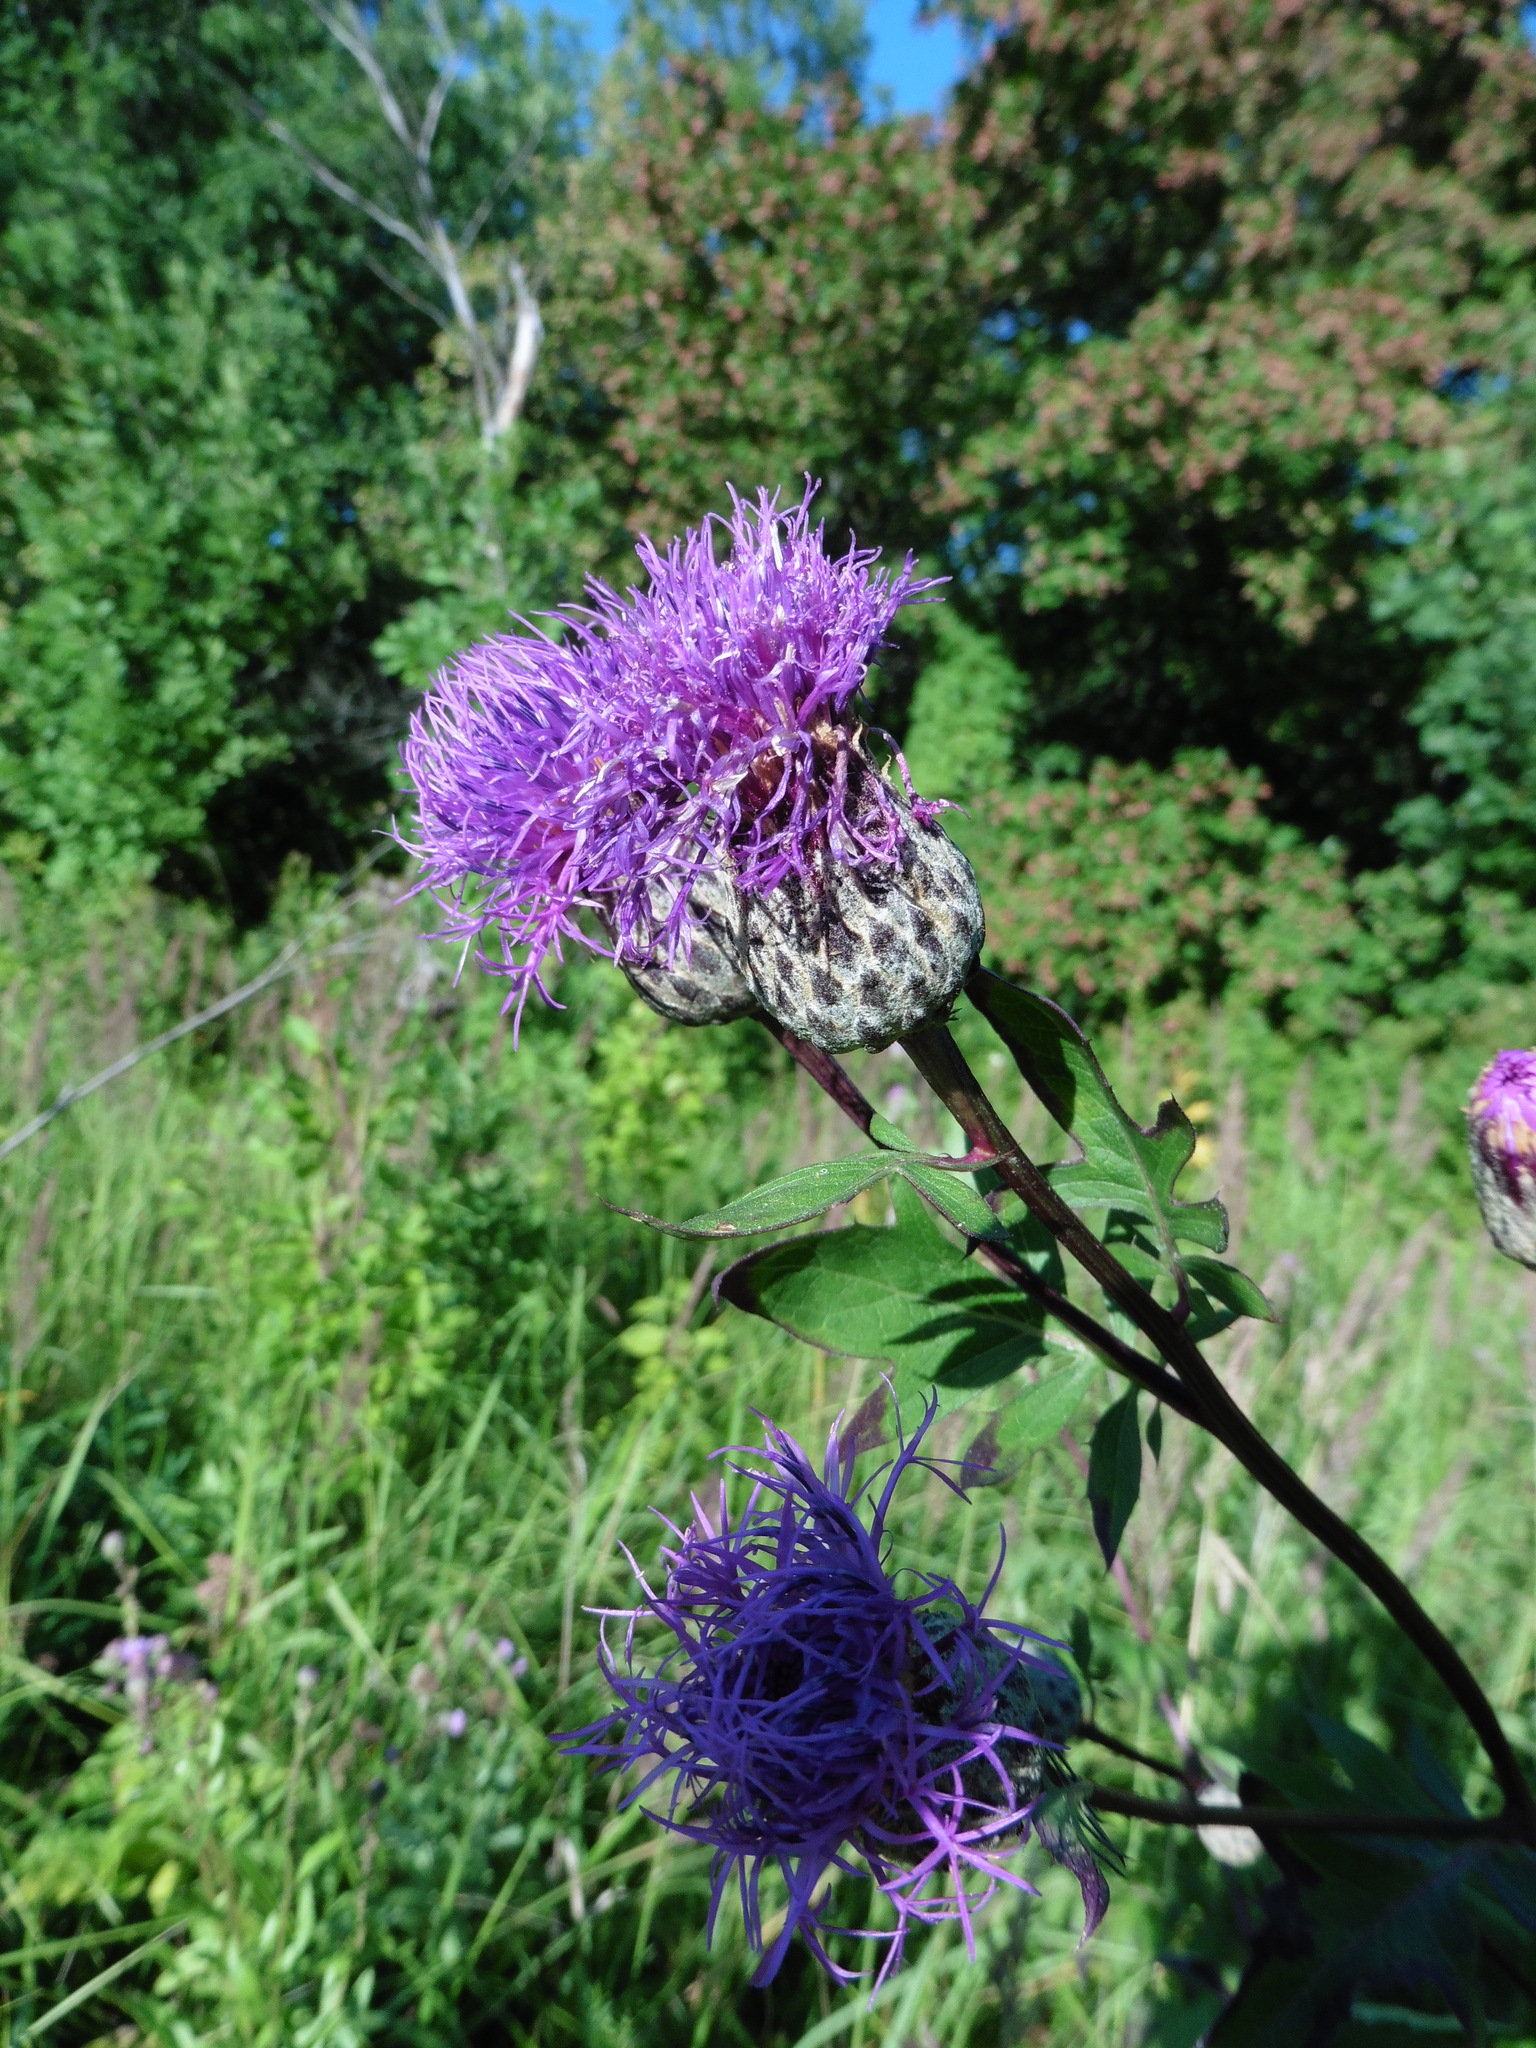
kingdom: Plantae
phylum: Tracheophyta
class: Magnoliopsida
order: Asterales
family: Asteraceae
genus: Serratula
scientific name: Serratula coronata
